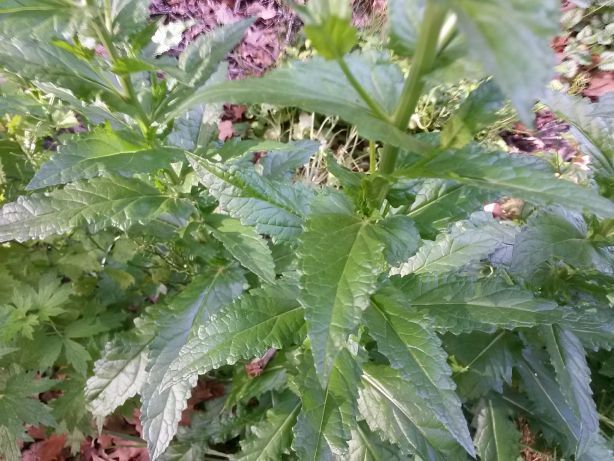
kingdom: Plantae
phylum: Tracheophyta
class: Magnoliopsida
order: Lamiales
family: Scrophulariaceae
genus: Verbascum
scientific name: Verbascum blattaria
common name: Moth mullein
